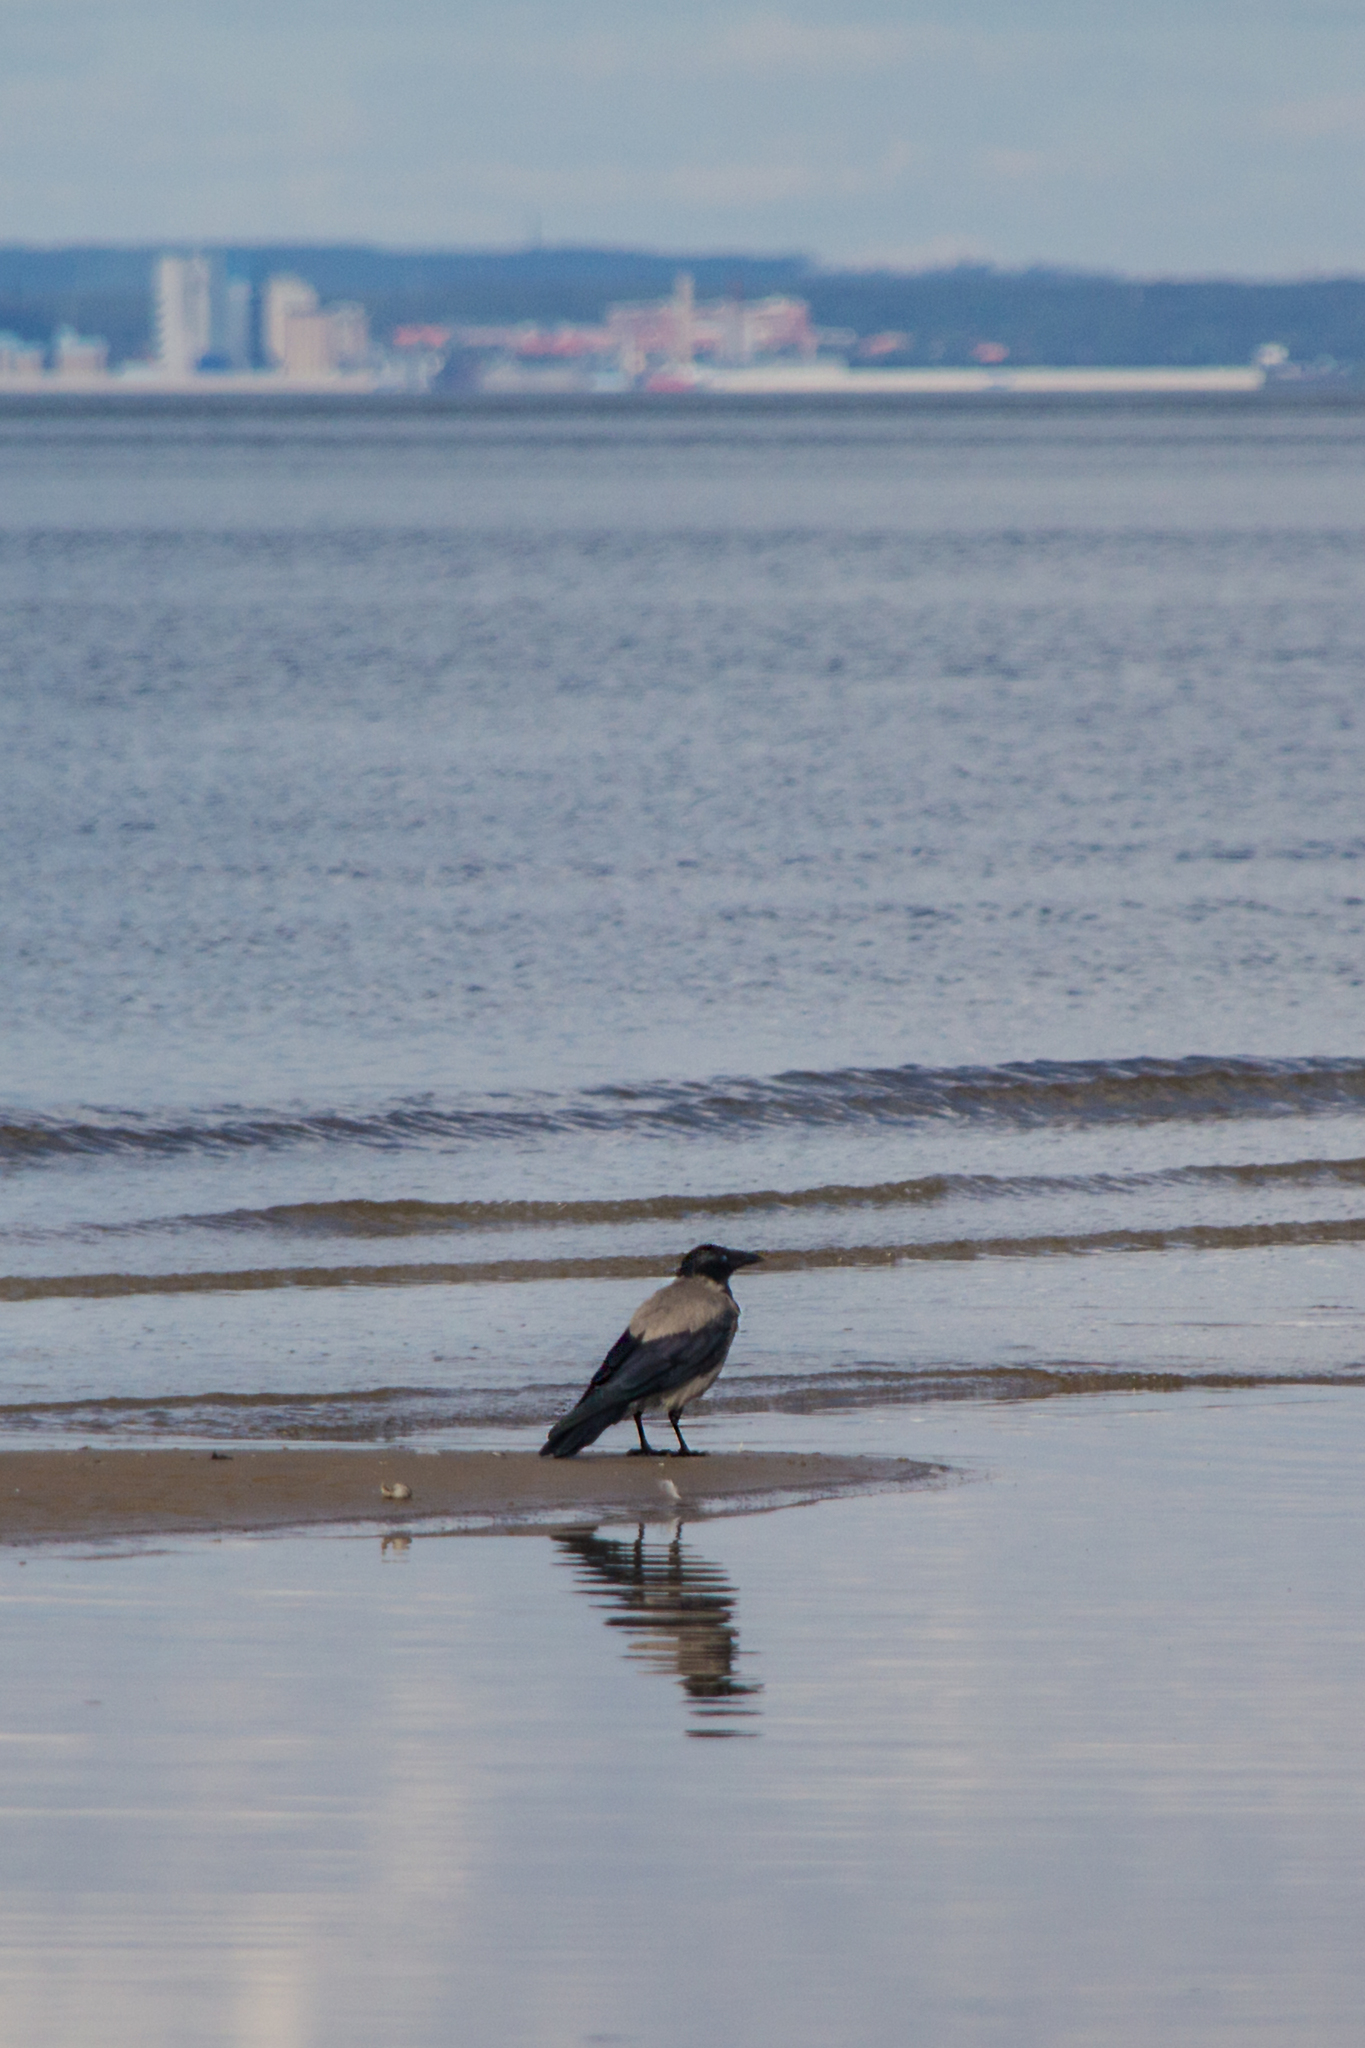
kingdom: Animalia
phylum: Chordata
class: Aves
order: Passeriformes
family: Corvidae
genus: Corvus
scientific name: Corvus cornix
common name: Hooded crow
